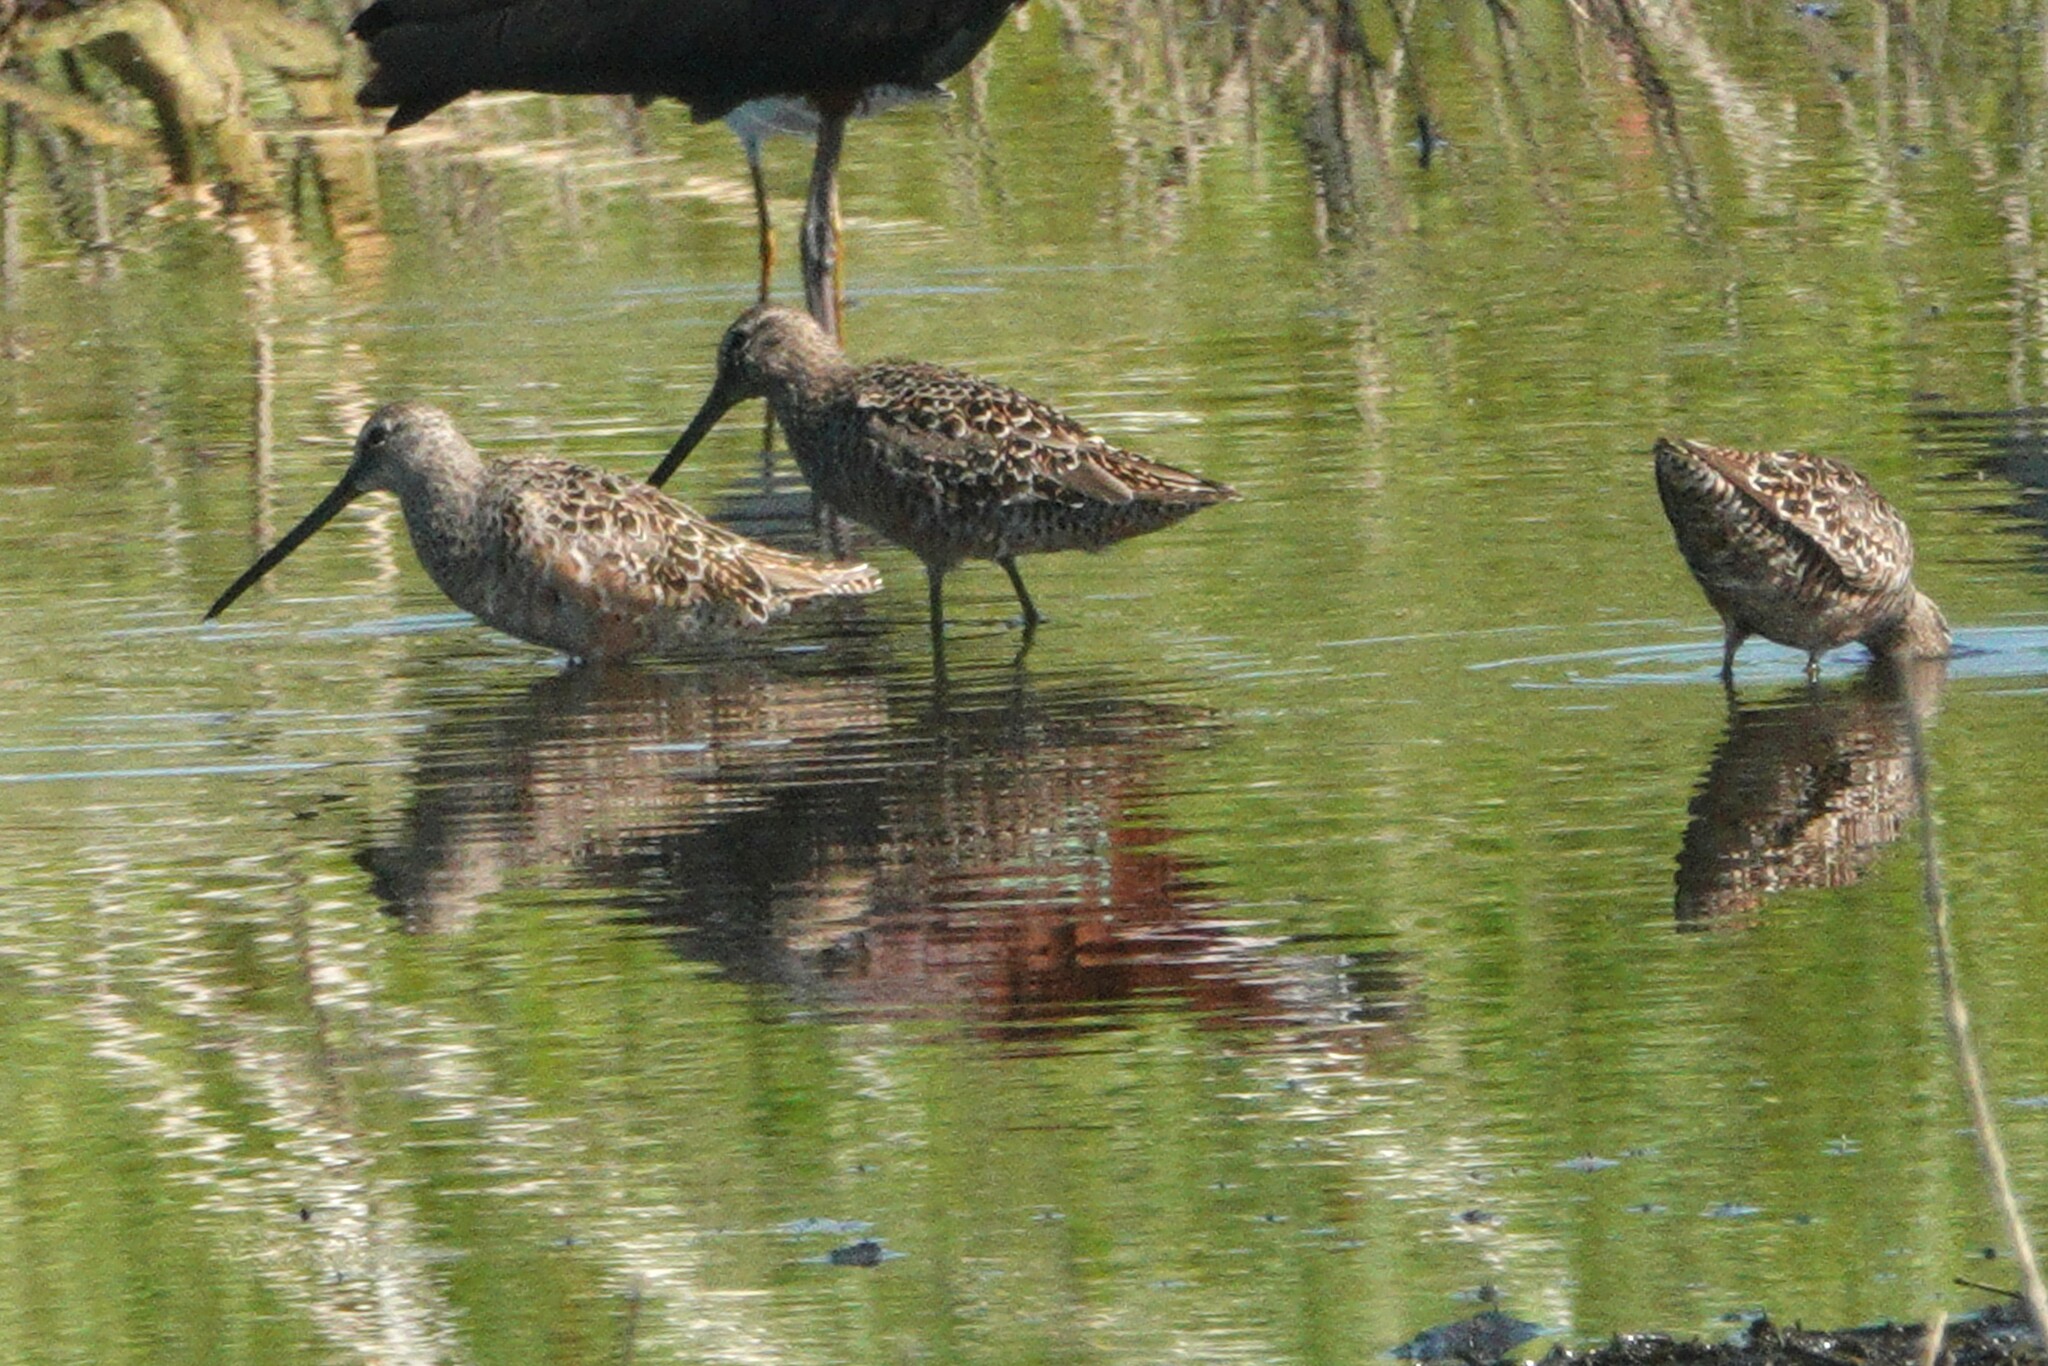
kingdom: Animalia
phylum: Chordata
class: Aves
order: Charadriiformes
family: Scolopacidae
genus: Limnodromus
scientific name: Limnodromus scolopaceus
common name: Long-billed dowitcher
